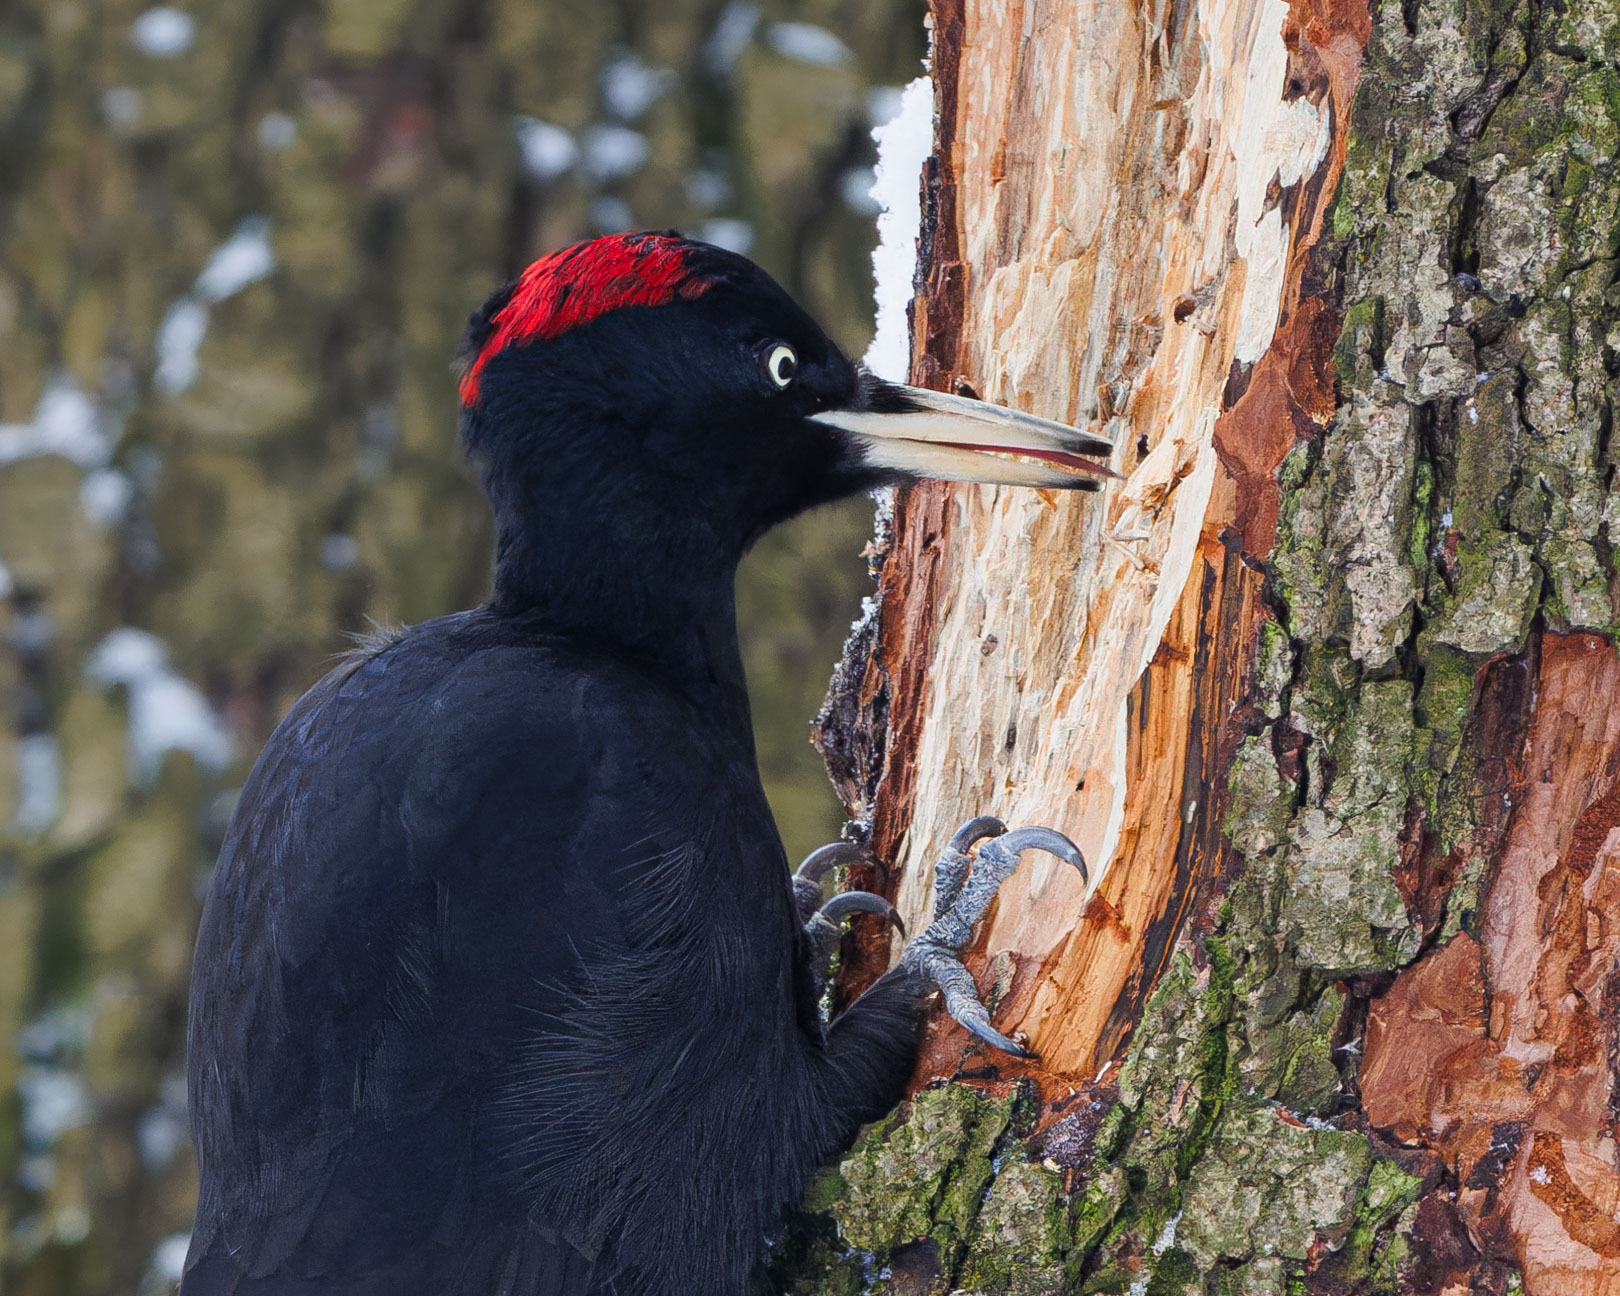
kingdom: Animalia
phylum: Chordata
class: Aves
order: Piciformes
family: Picidae
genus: Dryocopus
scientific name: Dryocopus martius
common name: Black woodpecker
